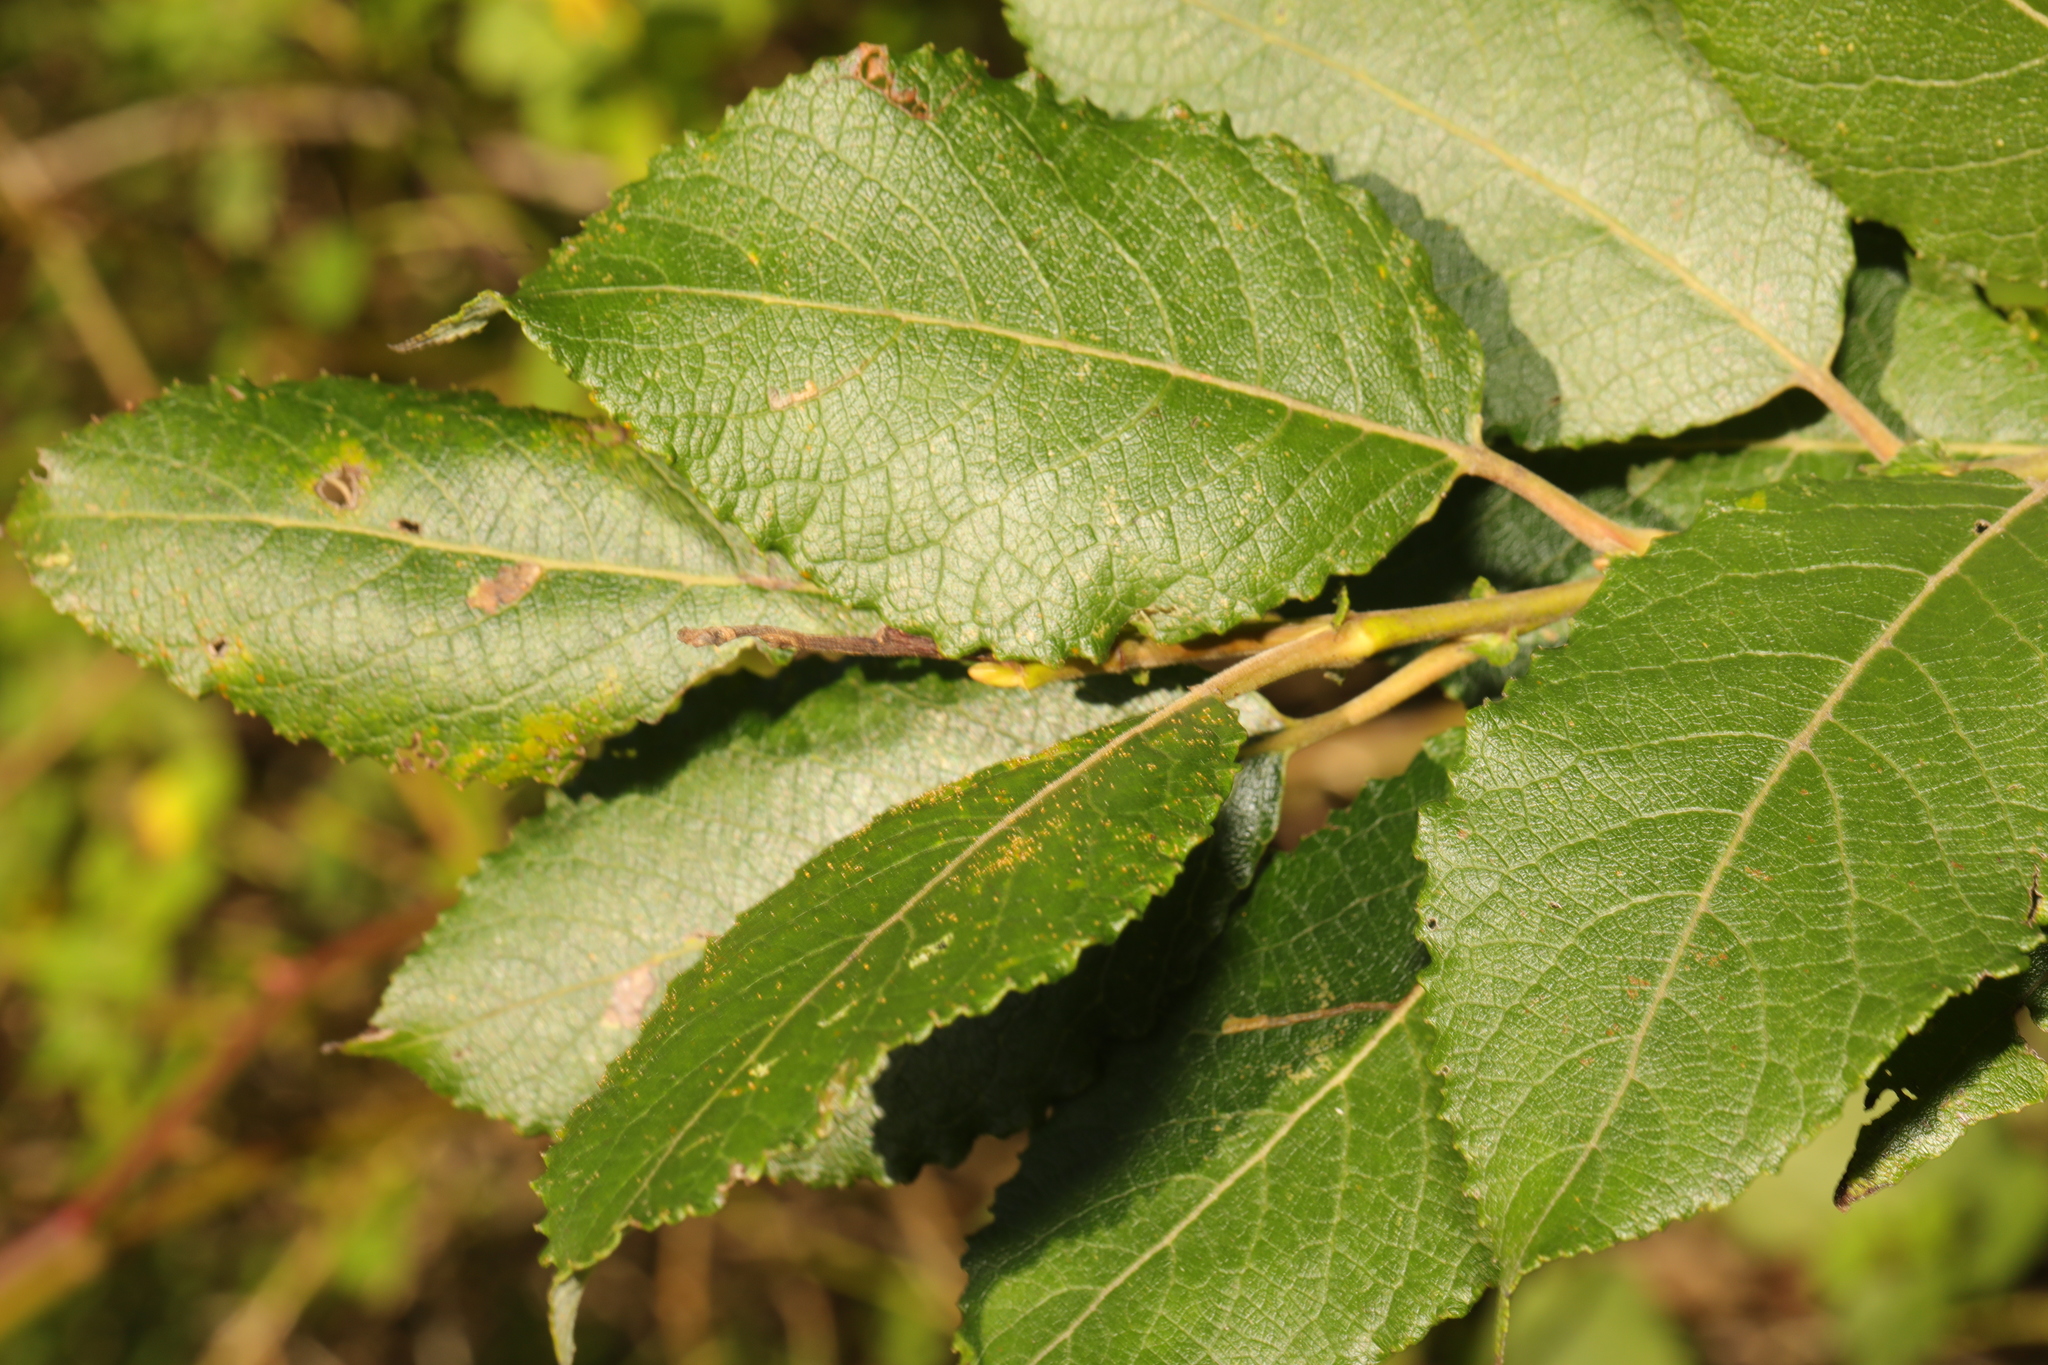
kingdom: Plantae
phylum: Tracheophyta
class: Magnoliopsida
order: Malpighiales
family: Salicaceae
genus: Salix
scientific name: Salix caprea
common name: Goat willow
